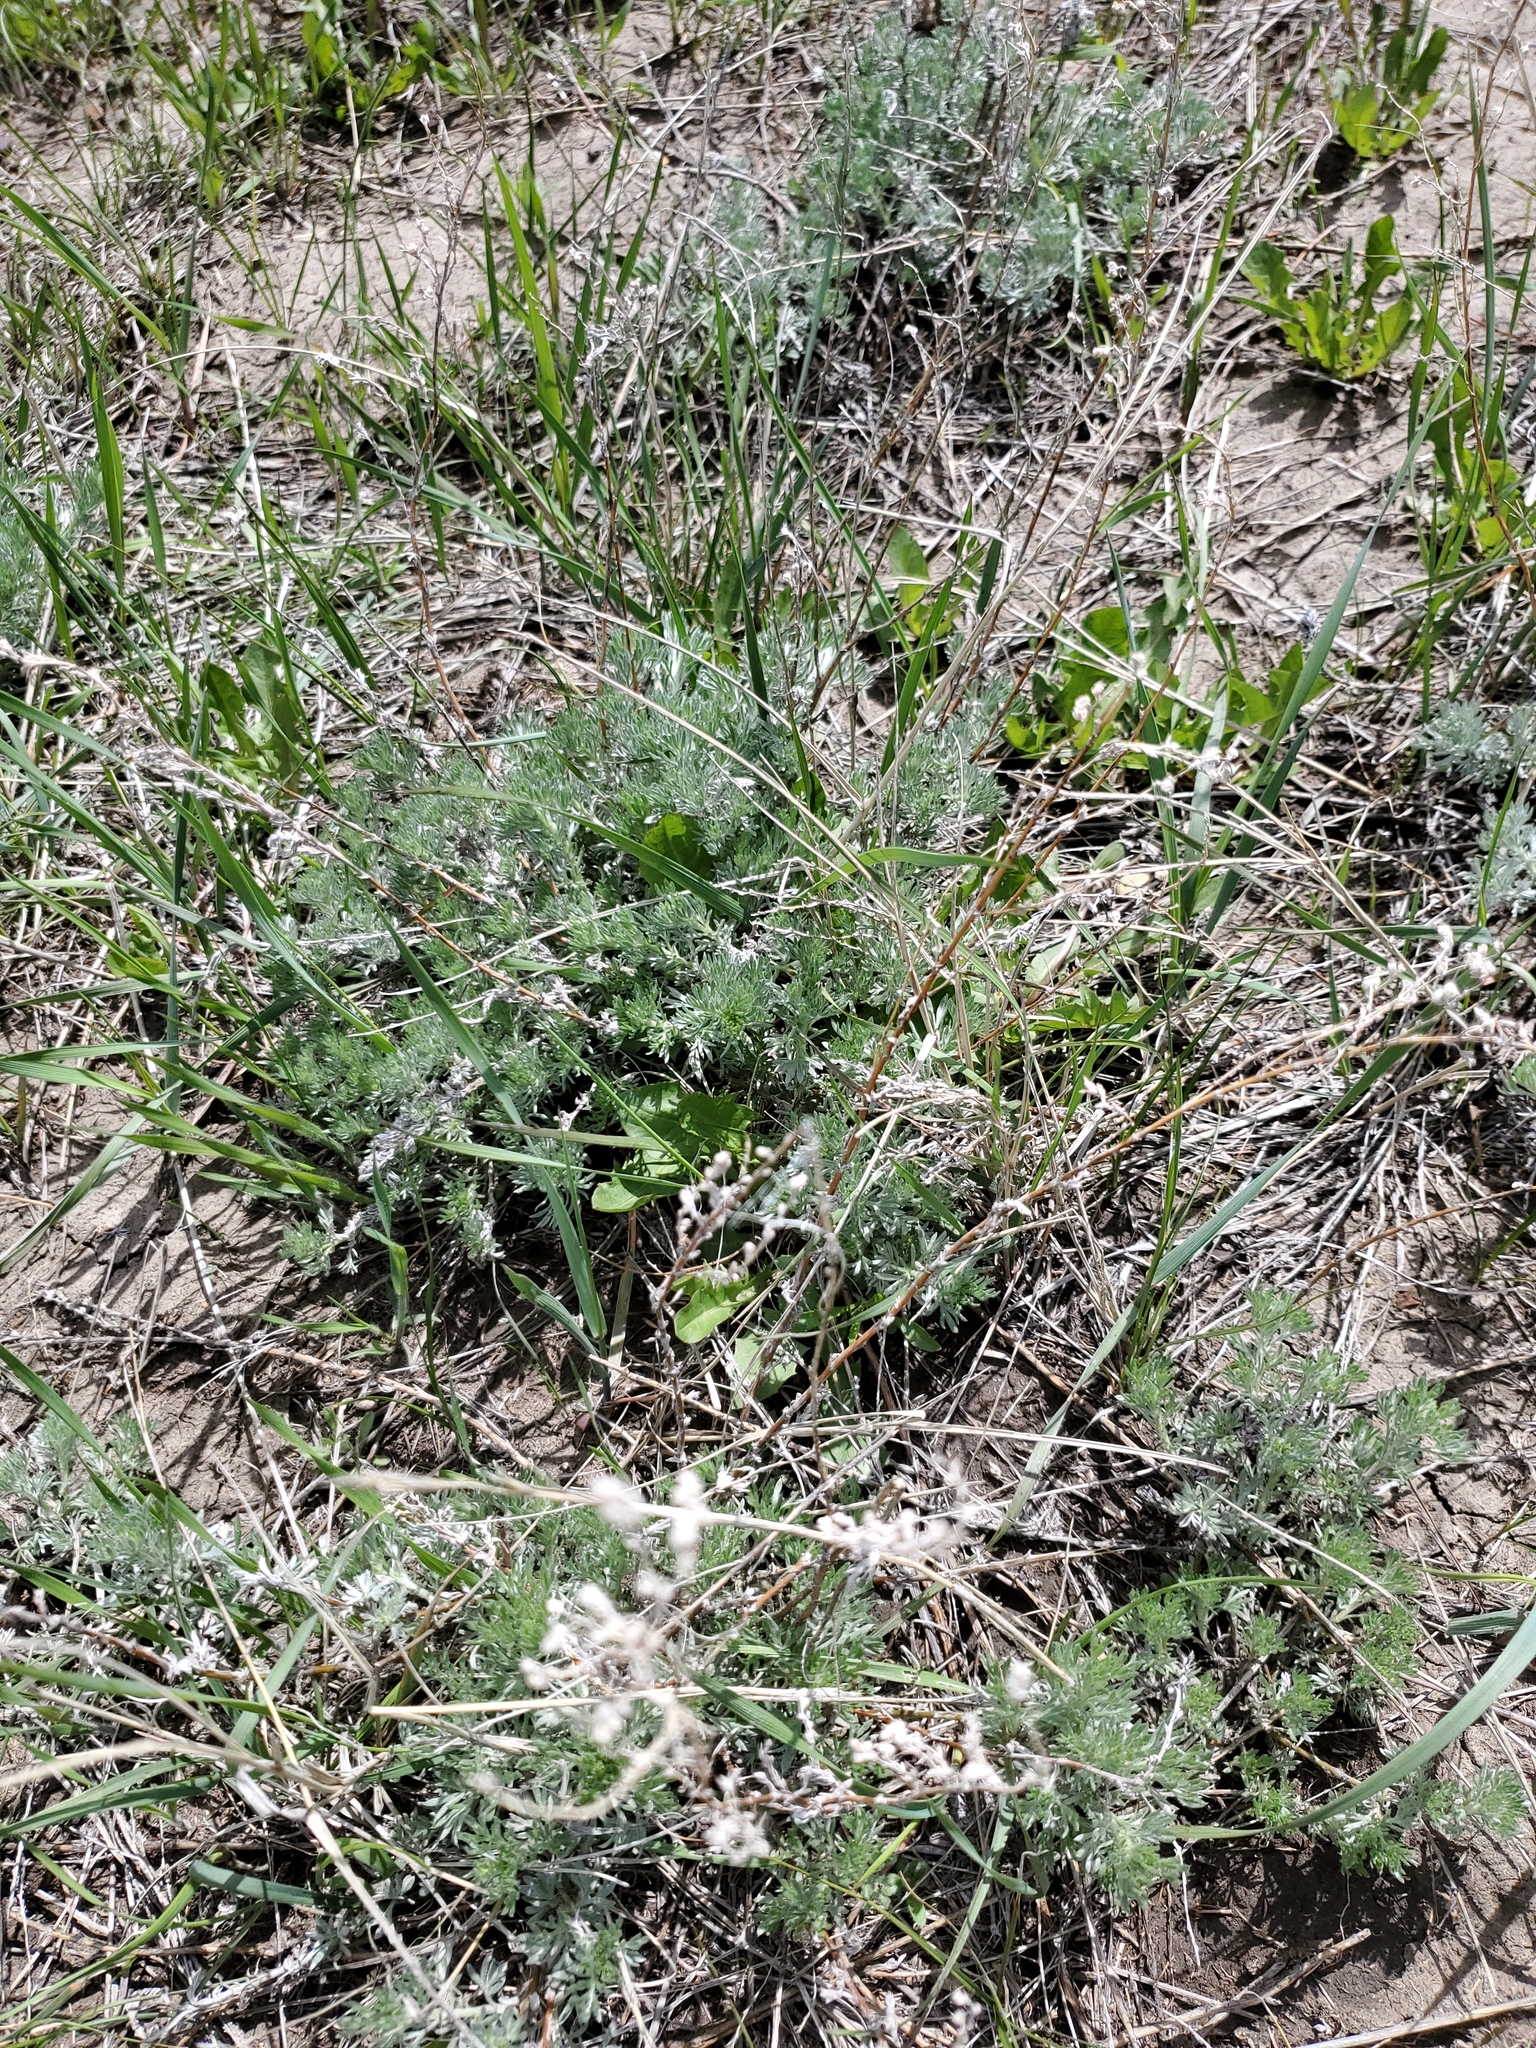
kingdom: Plantae
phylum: Tracheophyta
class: Magnoliopsida
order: Asterales
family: Asteraceae
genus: Artemisia
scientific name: Artemisia frigida
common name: Prairie sagewort
